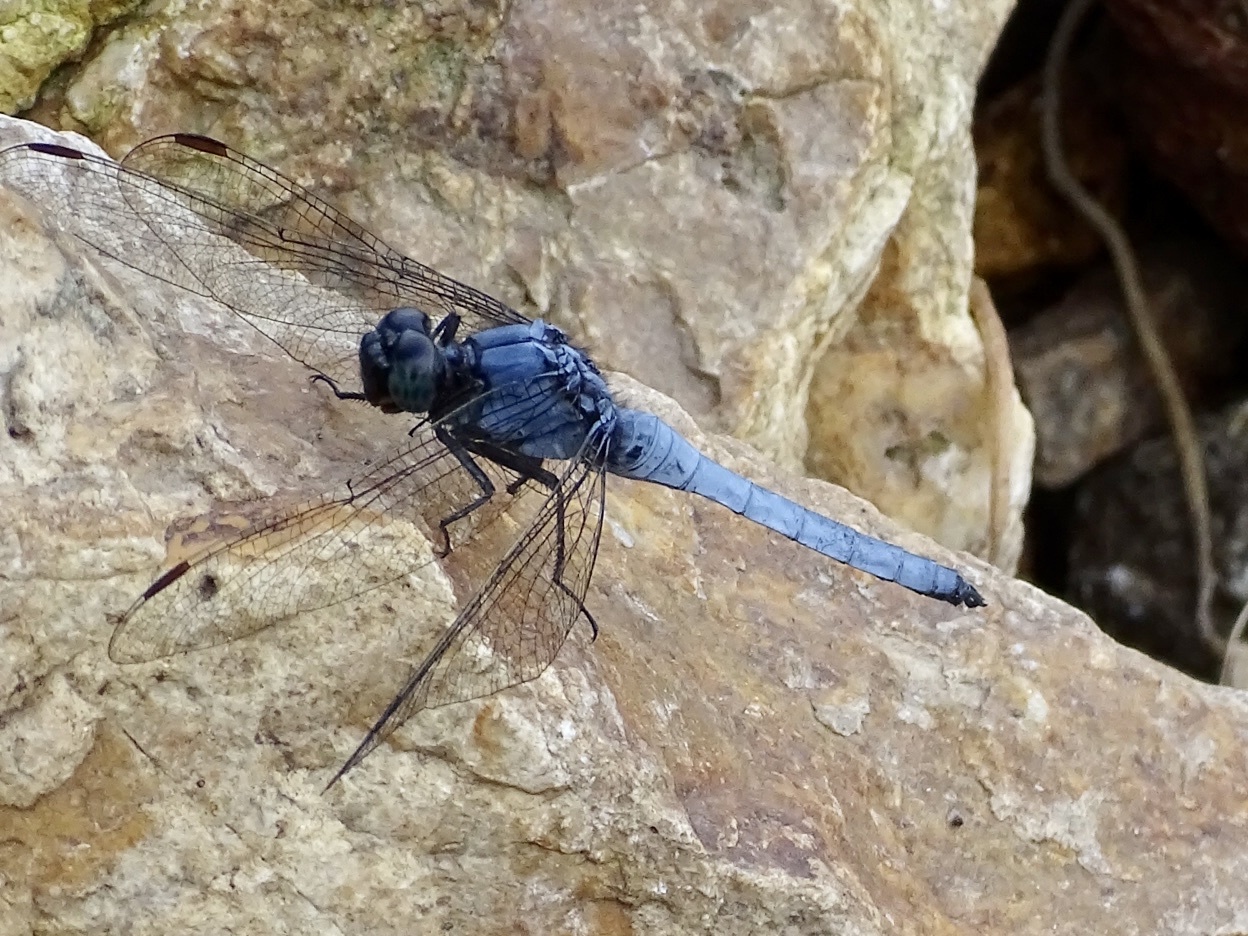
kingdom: Animalia
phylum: Arthropoda
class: Insecta
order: Odonata
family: Libellulidae
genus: Orthetrum
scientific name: Orthetrum glaucum
